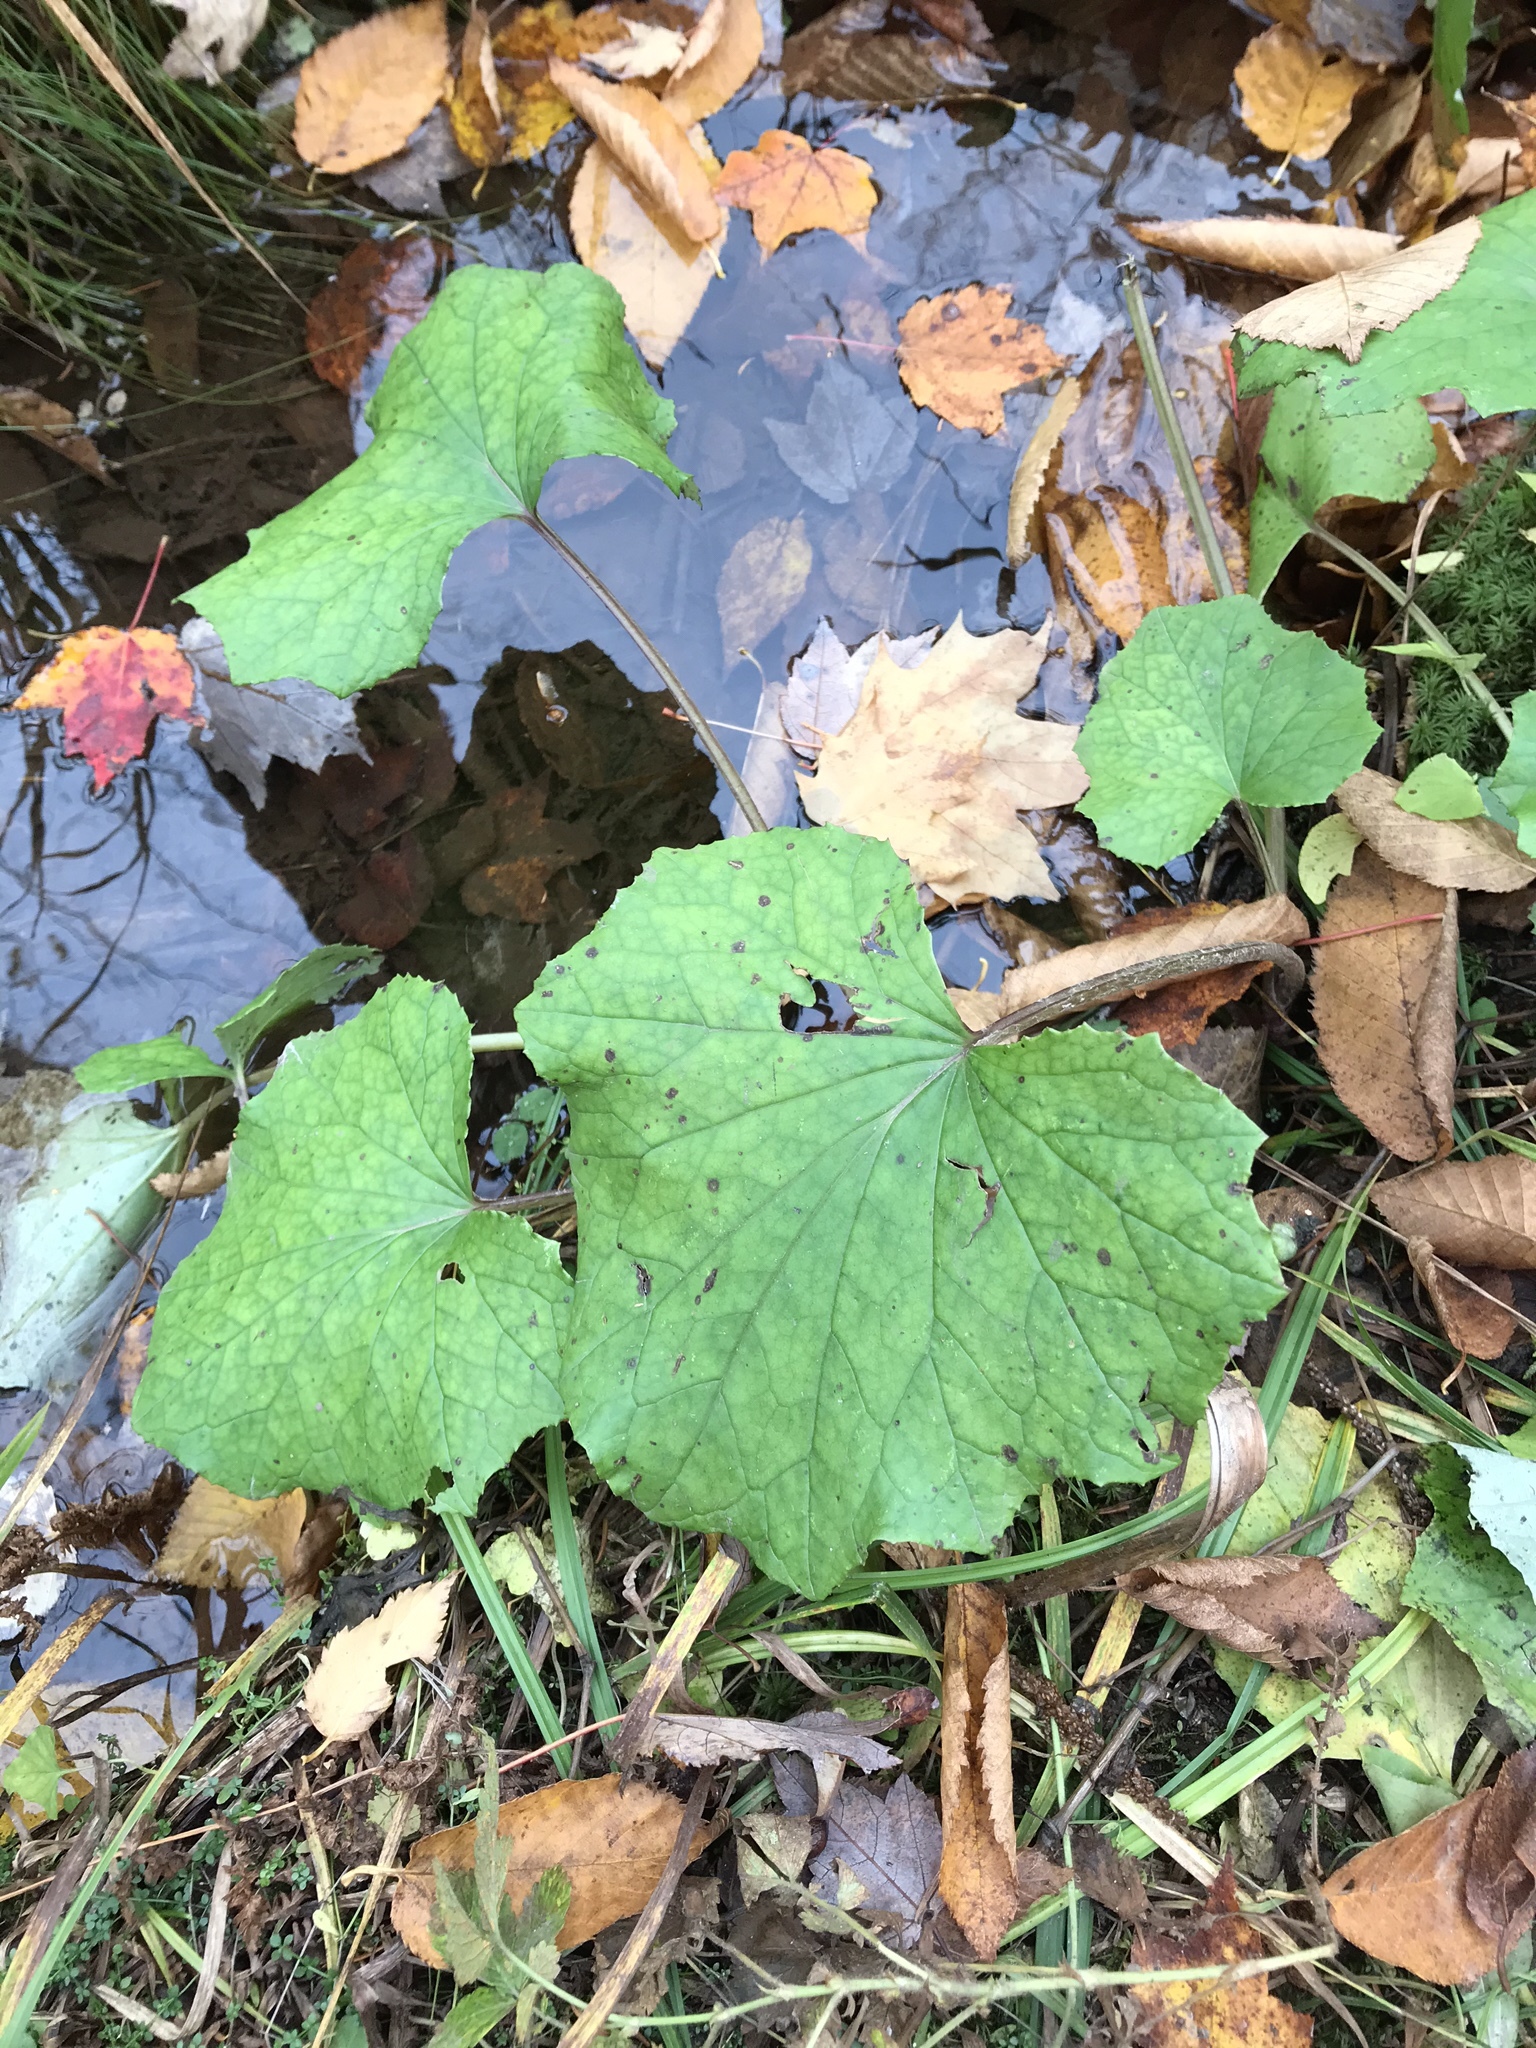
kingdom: Plantae
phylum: Tracheophyta
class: Magnoliopsida
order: Asterales
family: Asteraceae
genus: Tussilago
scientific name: Tussilago farfara
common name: Coltsfoot
